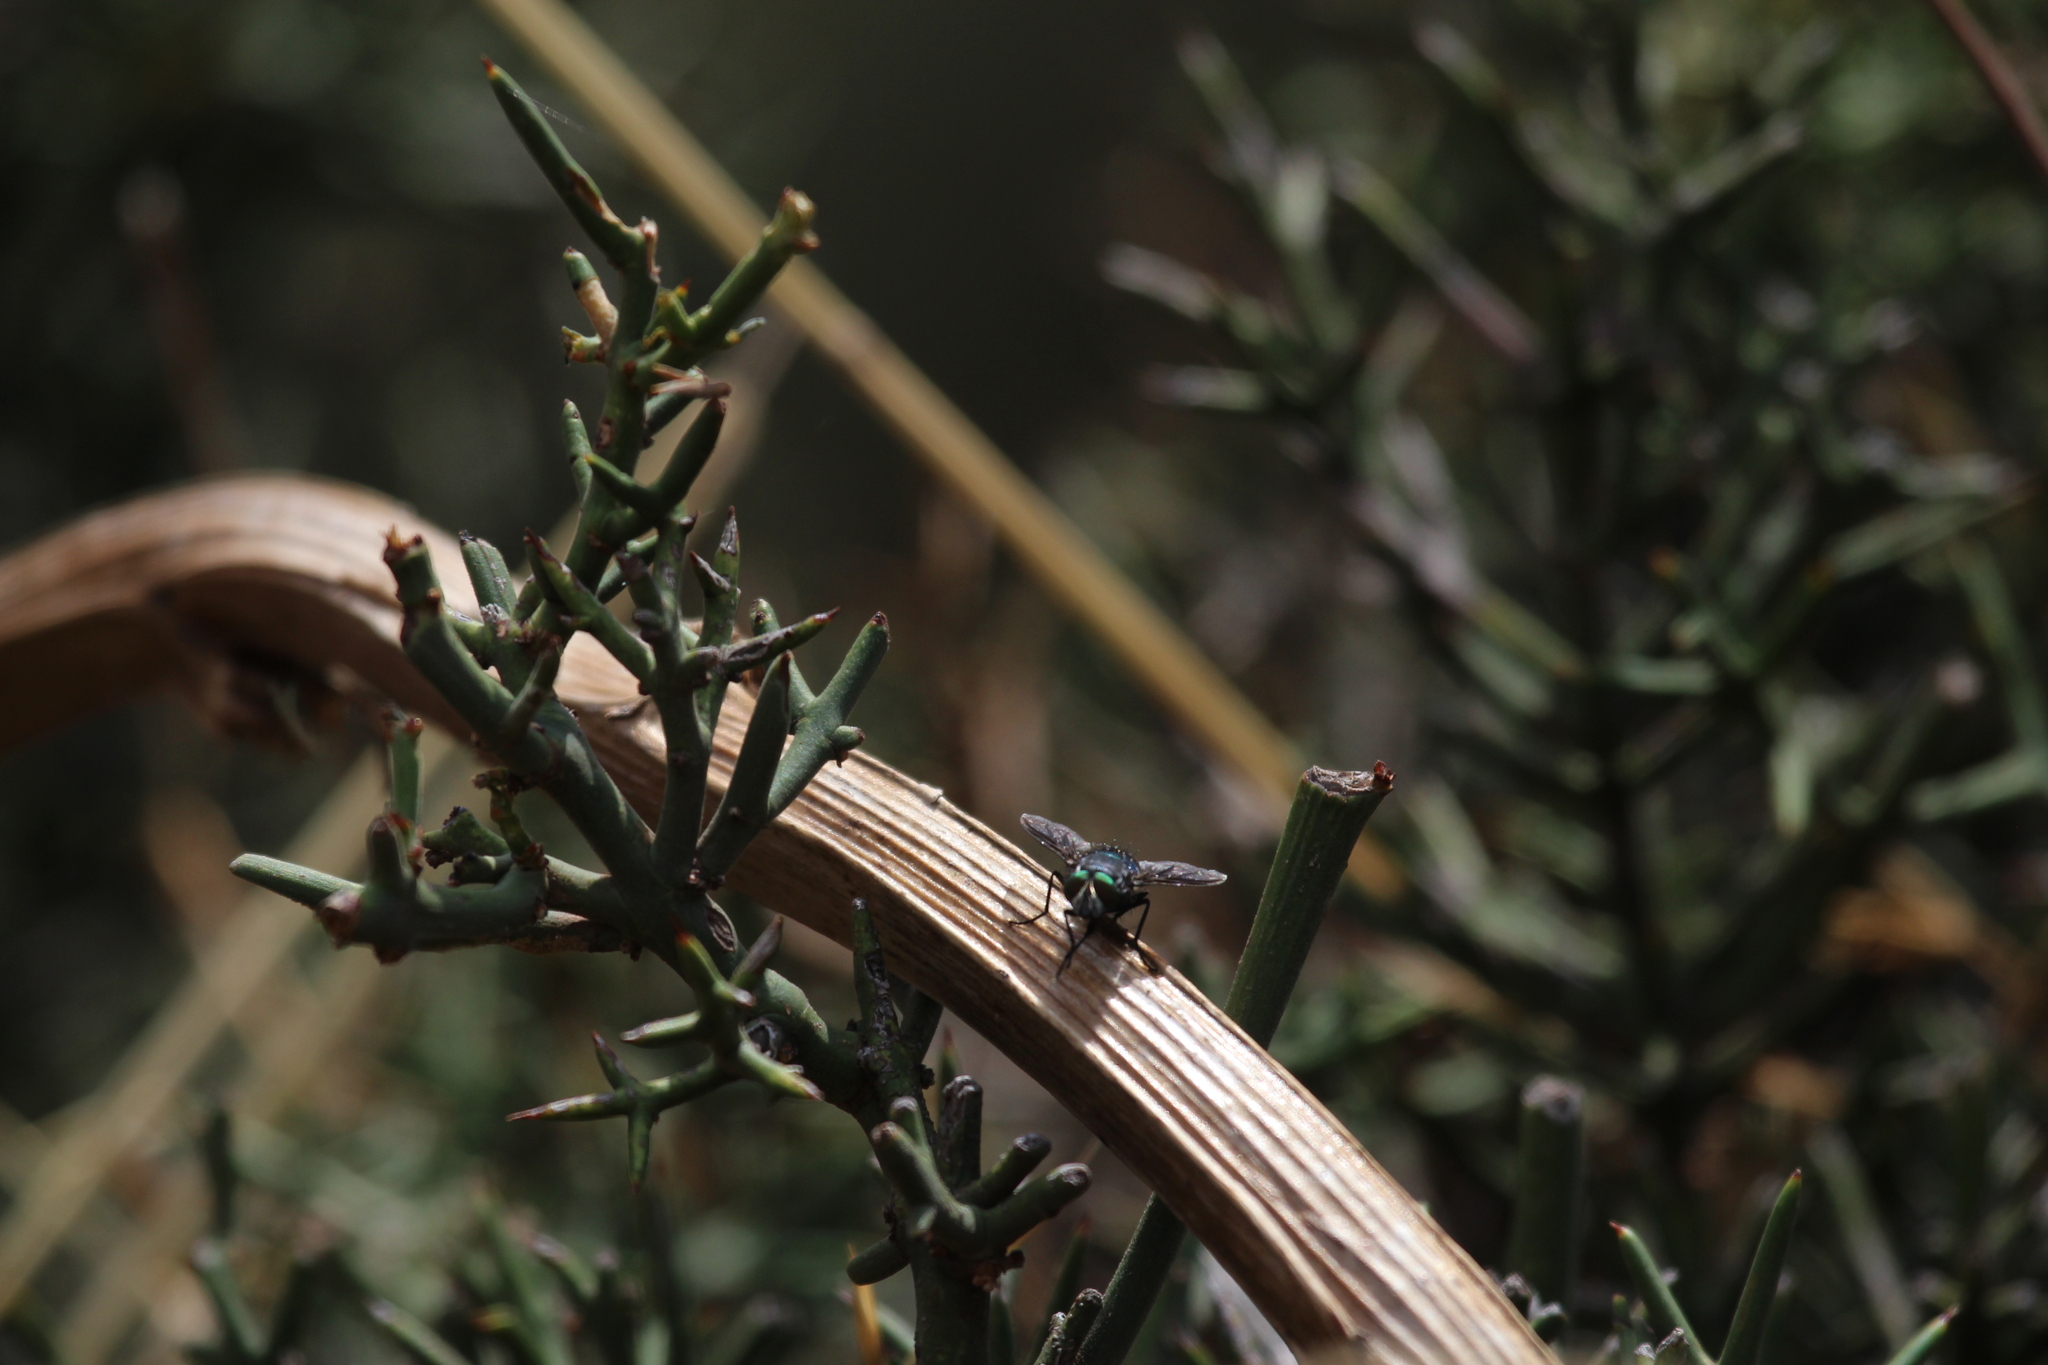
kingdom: Animalia
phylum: Arthropoda
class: Insecta
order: Diptera
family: Calliphoridae
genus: Sarconesia
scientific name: Sarconesia magellanica
